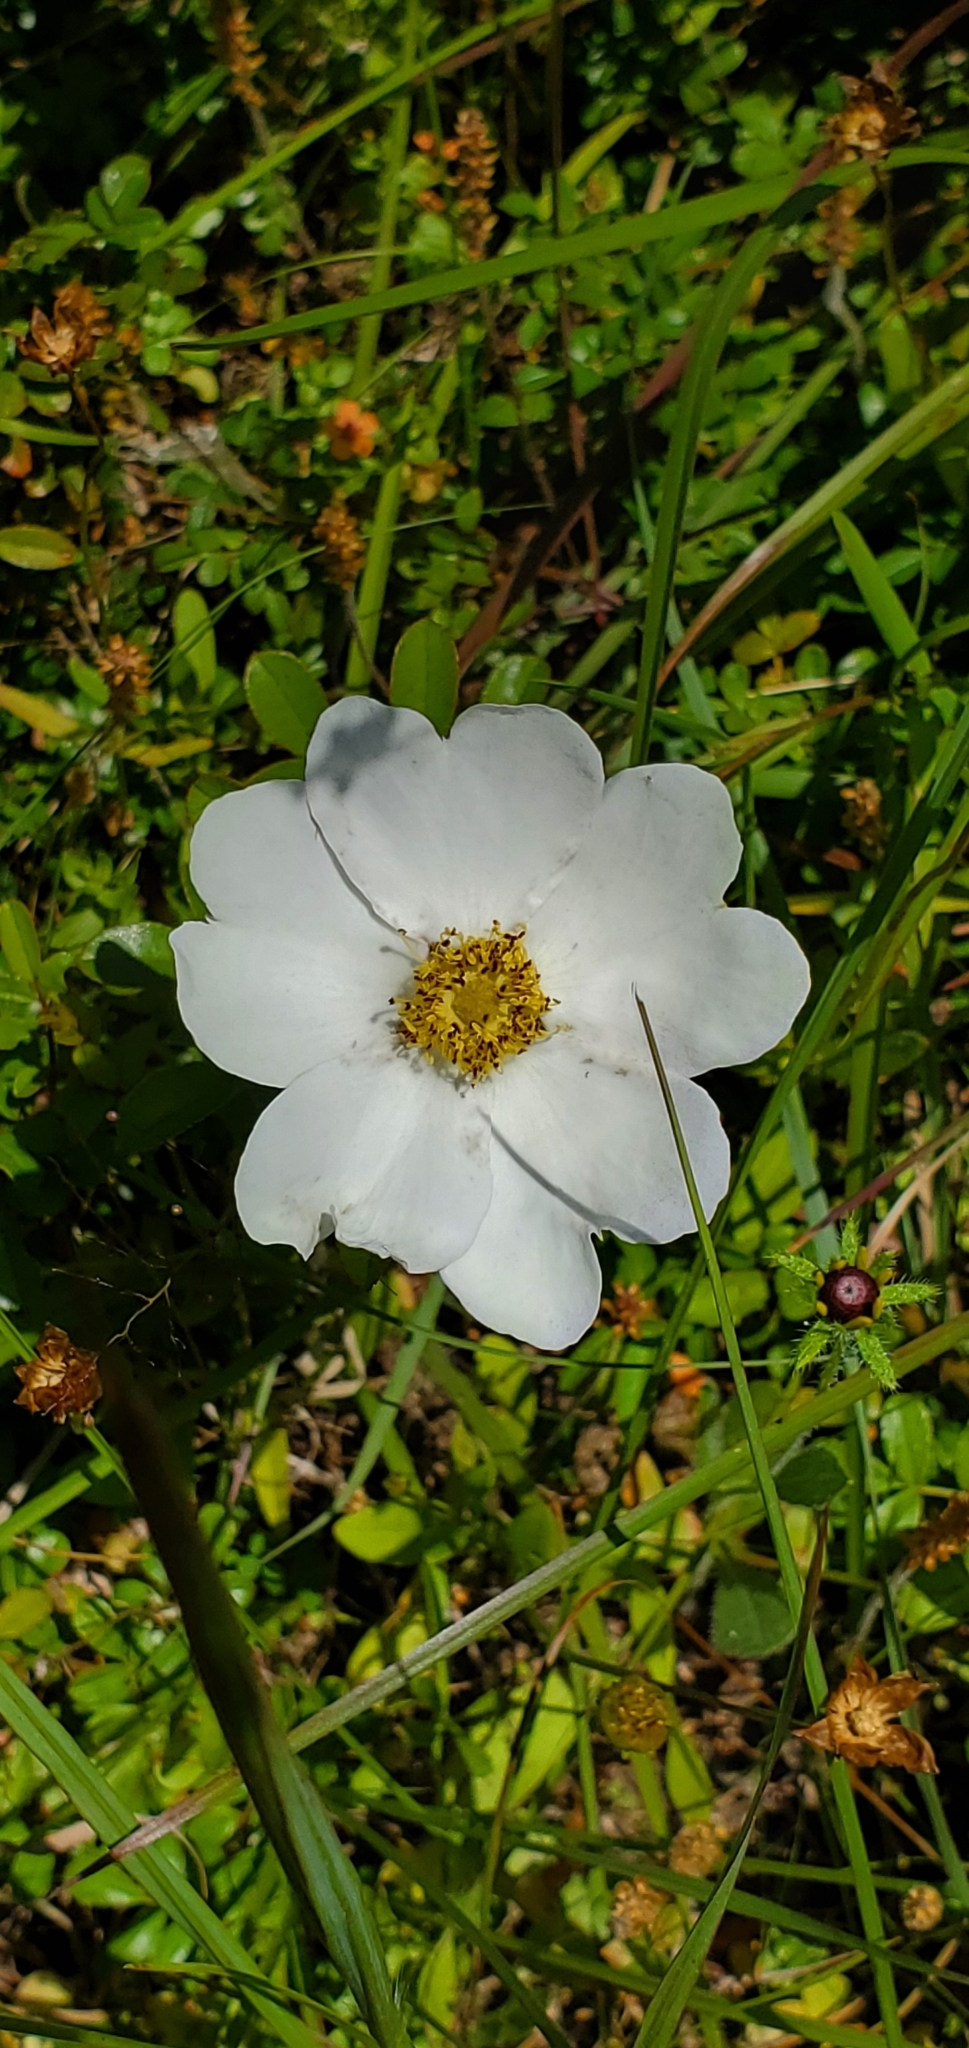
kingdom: Plantae
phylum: Tracheophyta
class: Magnoliopsida
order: Rosales
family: Rosaceae
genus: Rosa
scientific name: Rosa bracteata
